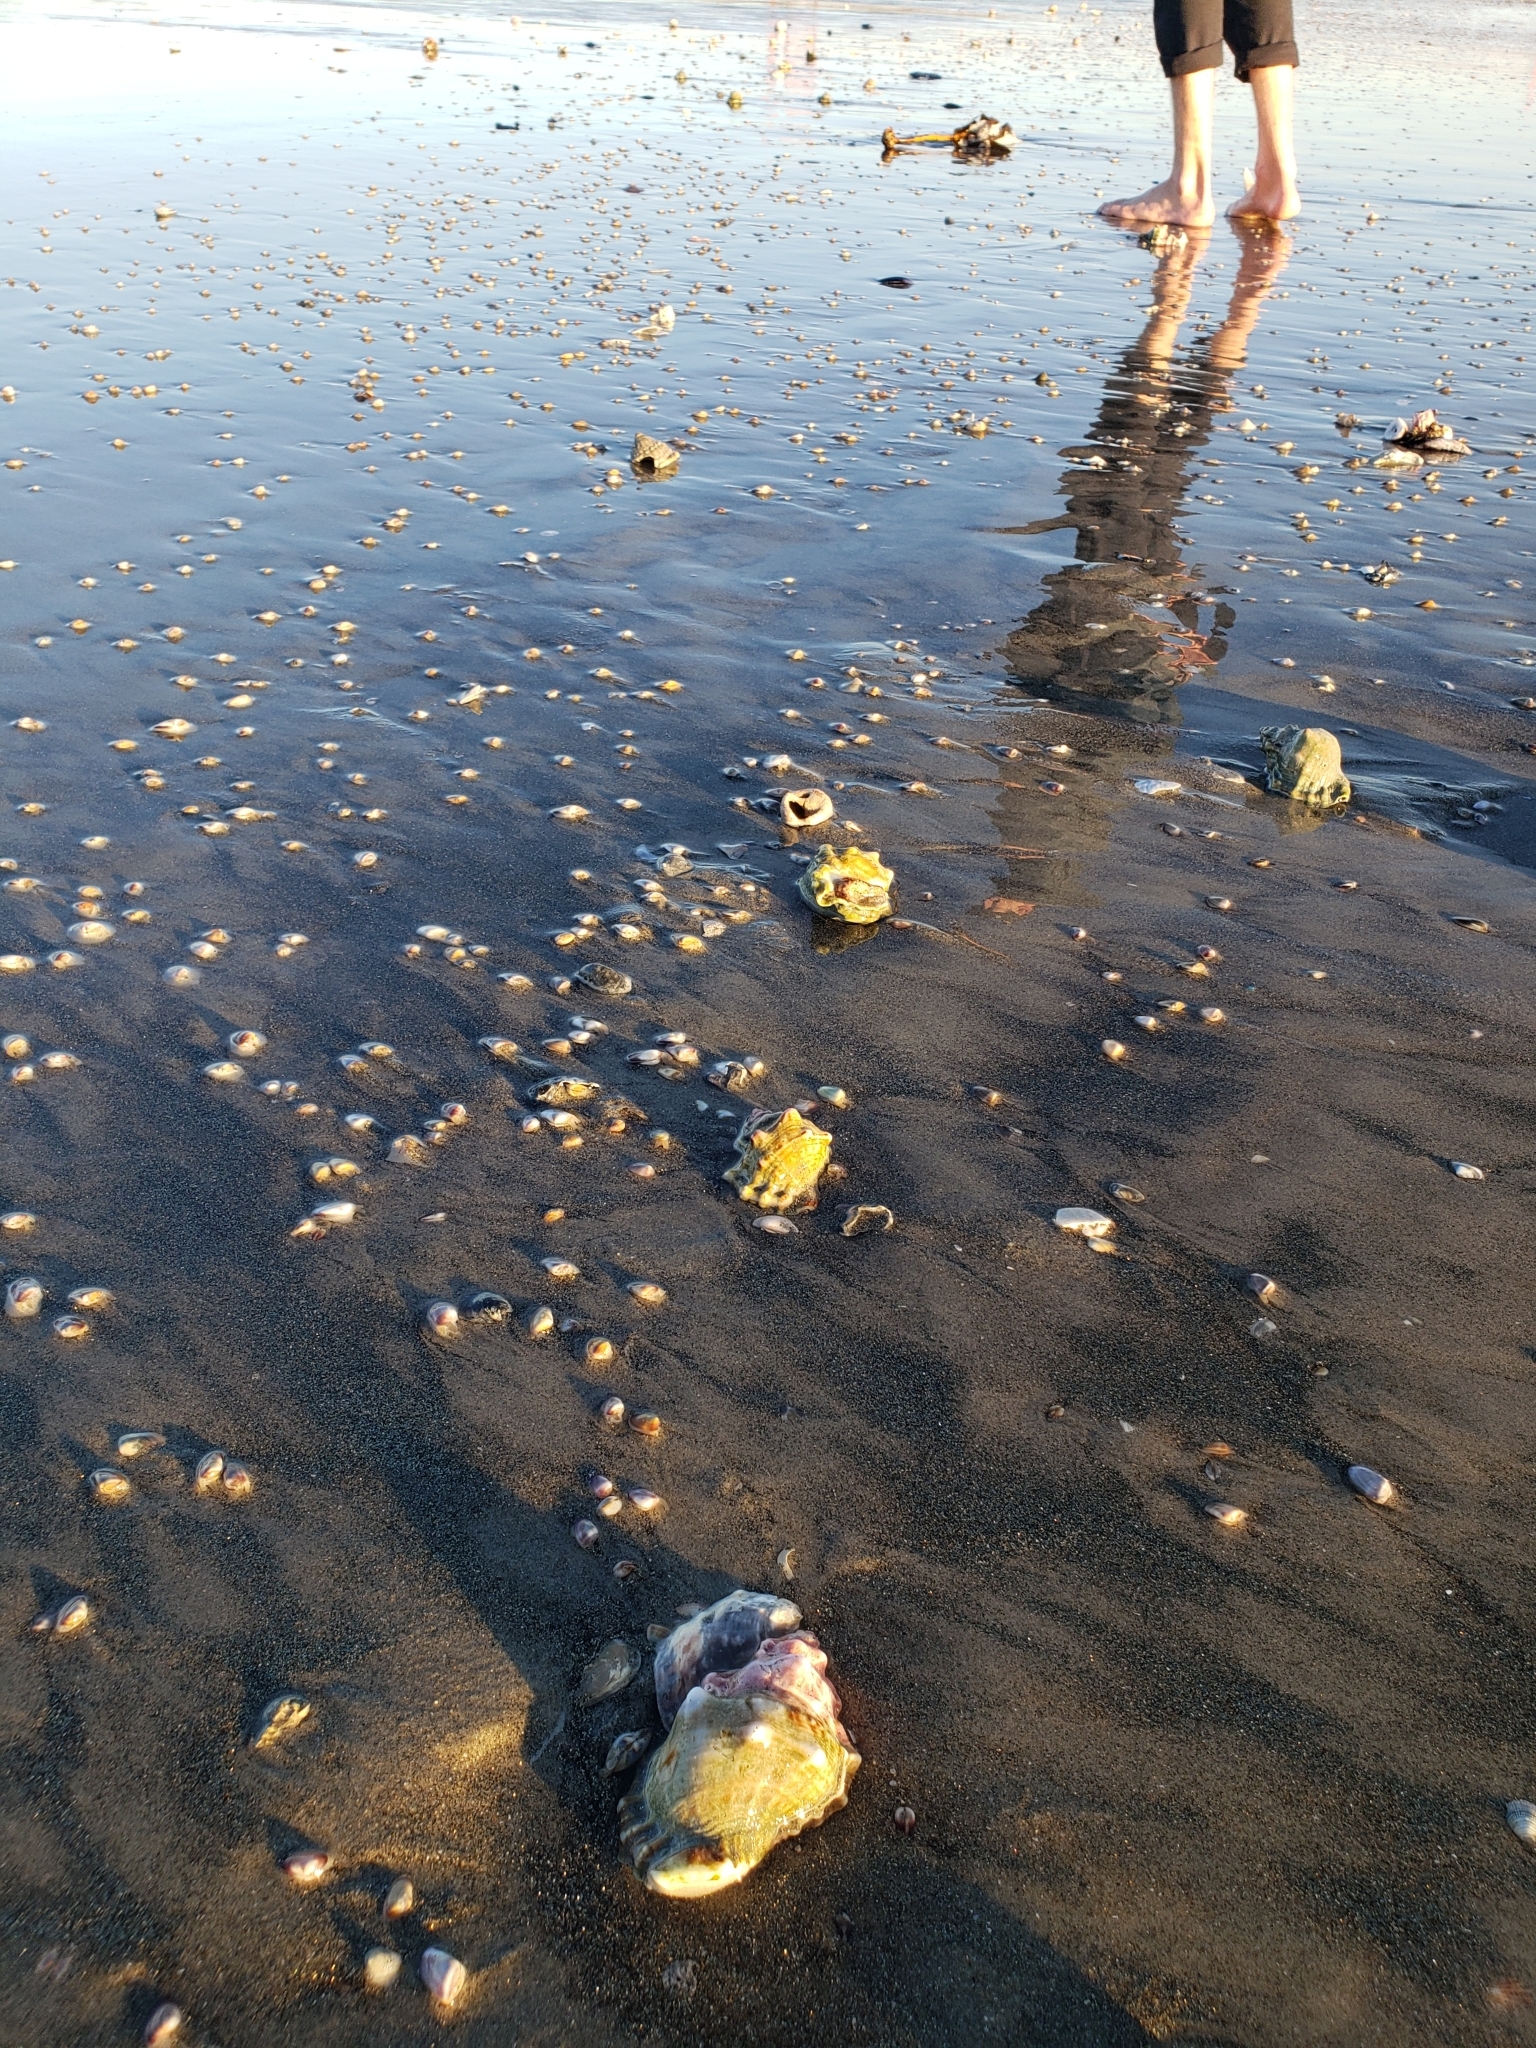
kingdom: Animalia
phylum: Mollusca
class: Gastropoda
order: Littorinimorpha
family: Bursidae
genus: Crossata
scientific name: Crossata californica
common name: California frogsnail
